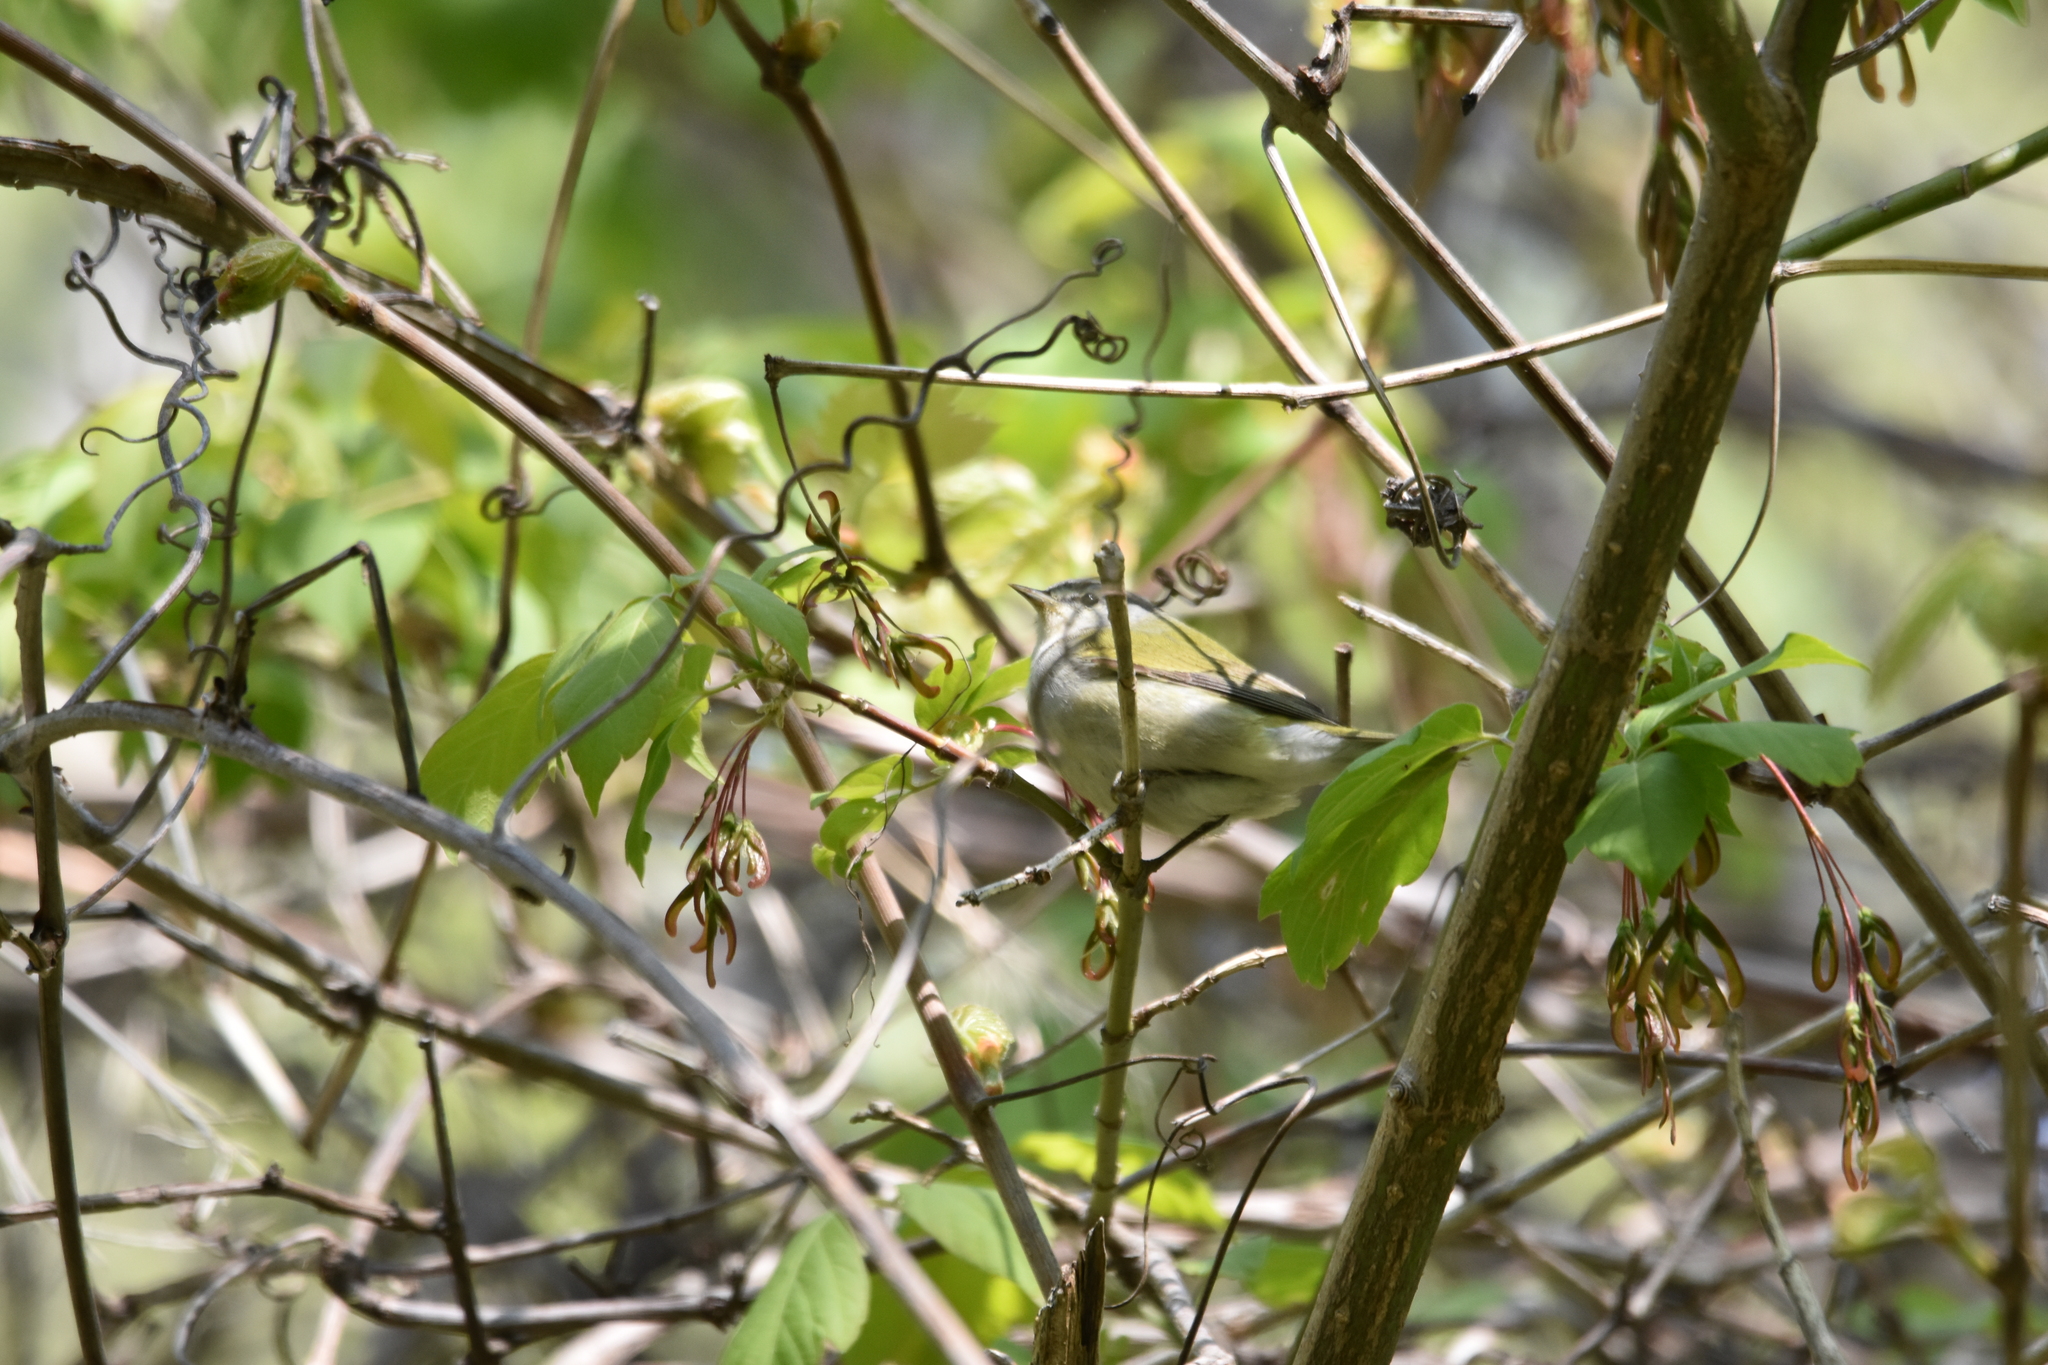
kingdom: Animalia
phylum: Chordata
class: Aves
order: Passeriformes
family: Parulidae
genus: Leiothlypis
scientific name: Leiothlypis peregrina
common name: Tennessee warbler
